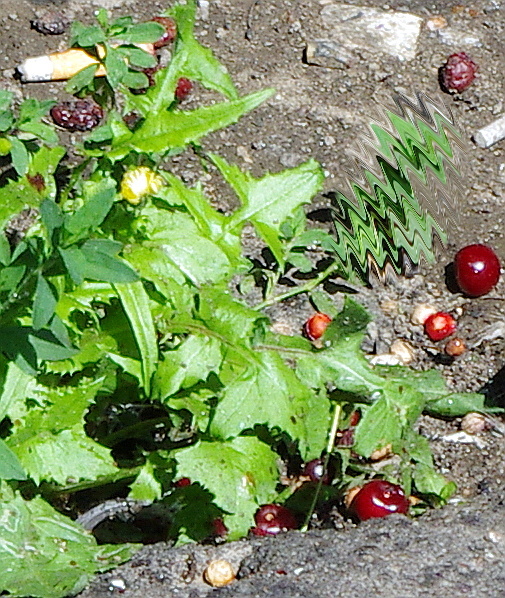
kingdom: Plantae
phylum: Tracheophyta
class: Magnoliopsida
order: Asterales
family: Asteraceae
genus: Sonchus
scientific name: Sonchus oleraceus
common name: Common sowthistle
